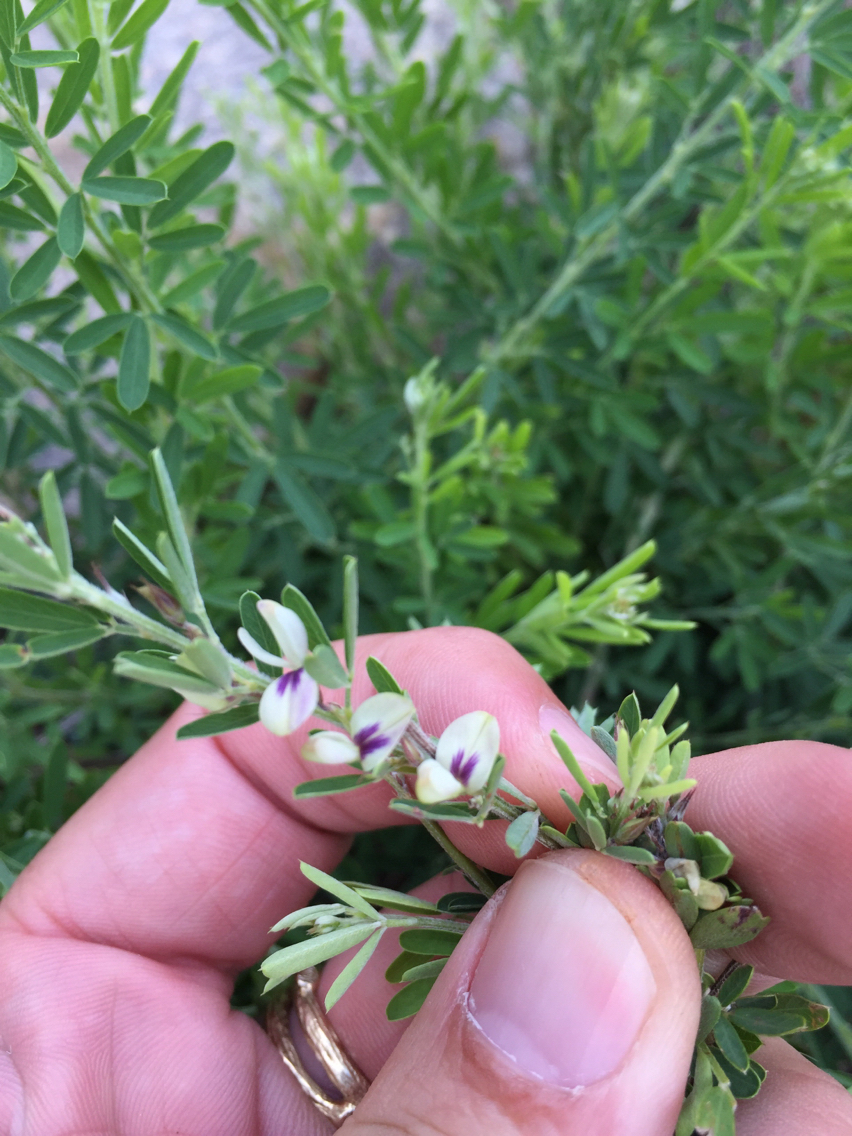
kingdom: Plantae
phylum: Tracheophyta
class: Magnoliopsida
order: Fabales
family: Fabaceae
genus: Lespedeza
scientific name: Lespedeza cuneata
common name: Chinese bush-clover
